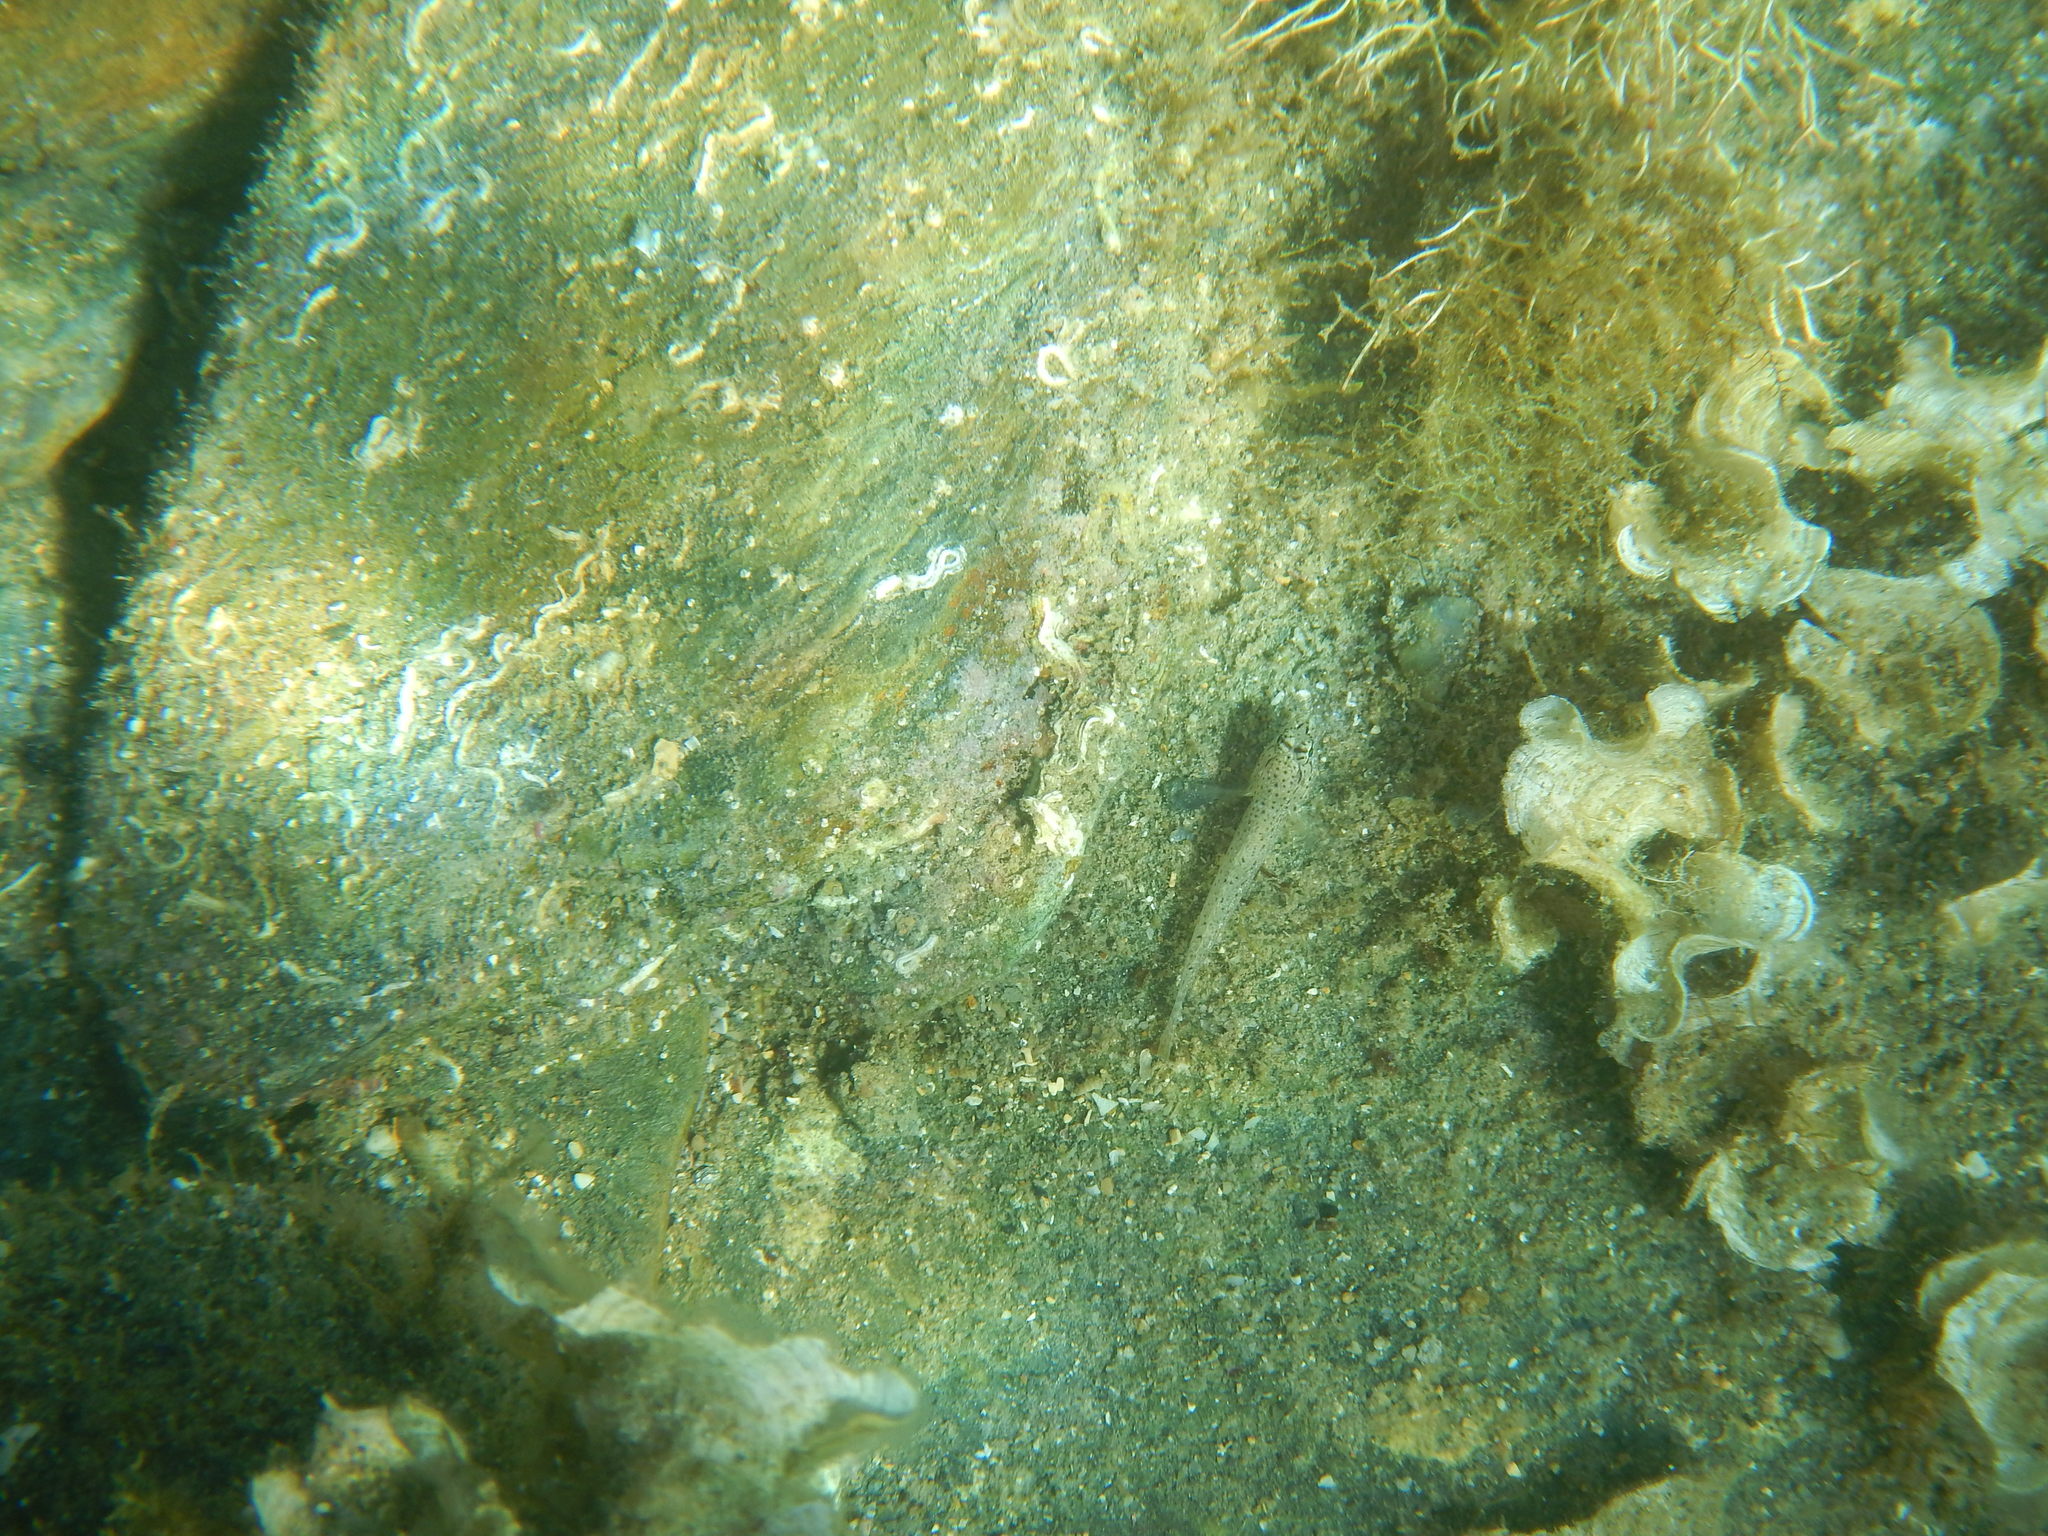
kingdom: Animalia
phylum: Chordata
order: Perciformes
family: Gobiidae
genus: Gobius
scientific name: Gobius incognitus
